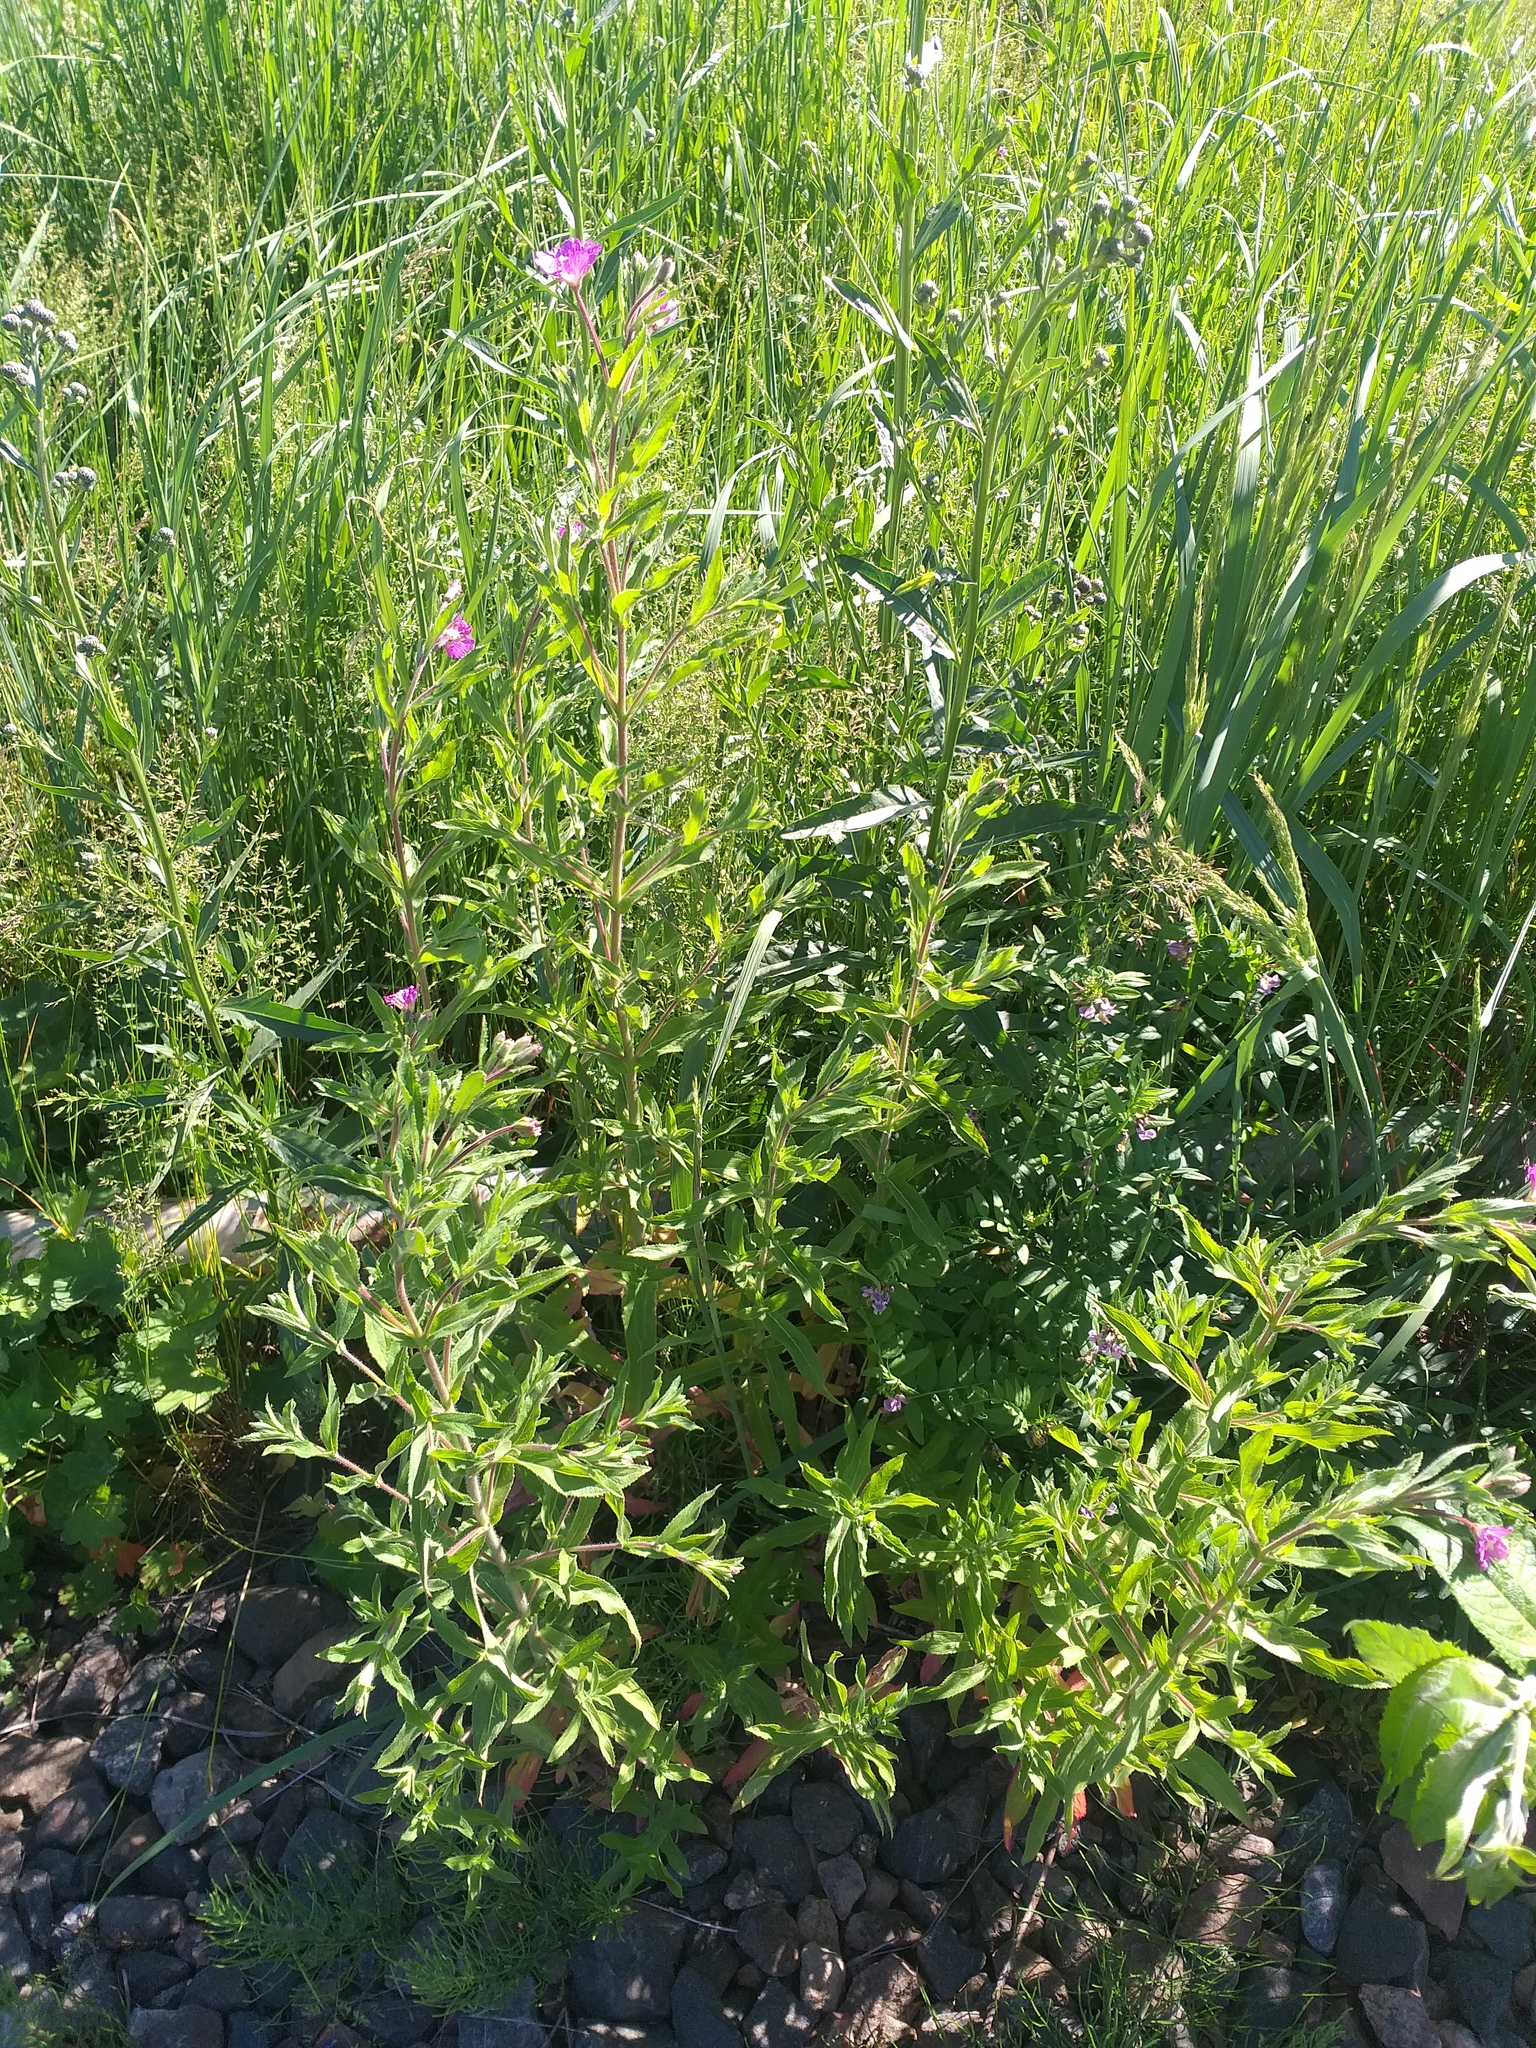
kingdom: Plantae
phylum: Tracheophyta
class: Magnoliopsida
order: Myrtales
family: Onagraceae
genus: Epilobium
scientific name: Epilobium hirsutum
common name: Great willowherb
